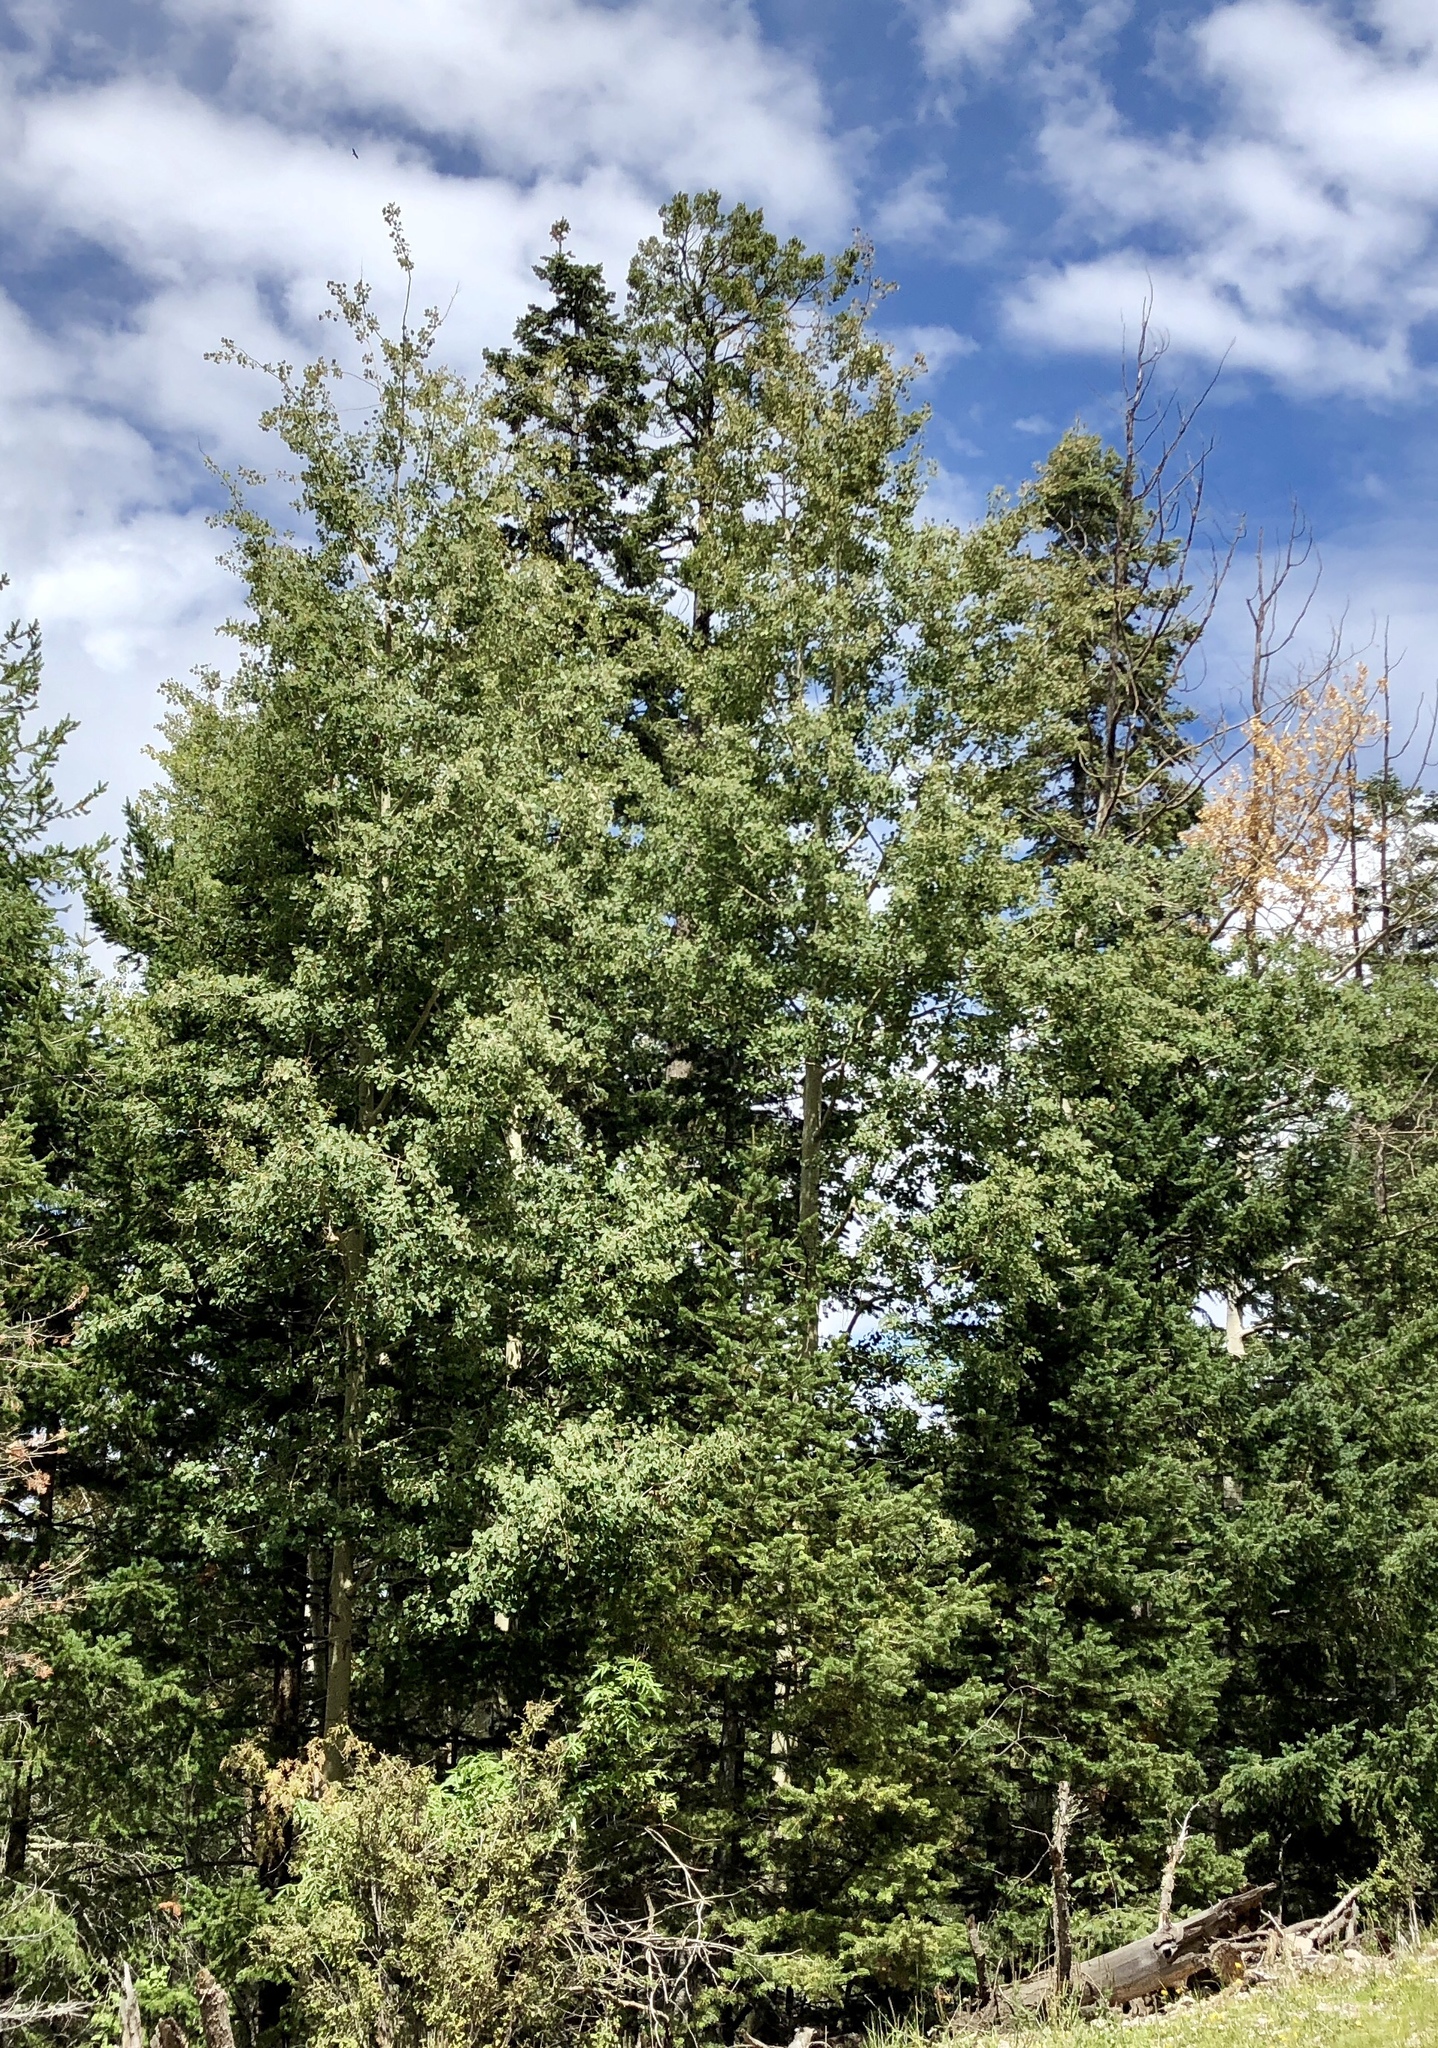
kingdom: Plantae
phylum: Tracheophyta
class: Magnoliopsida
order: Malpighiales
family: Salicaceae
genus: Populus
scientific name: Populus tremuloides
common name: Quaking aspen
